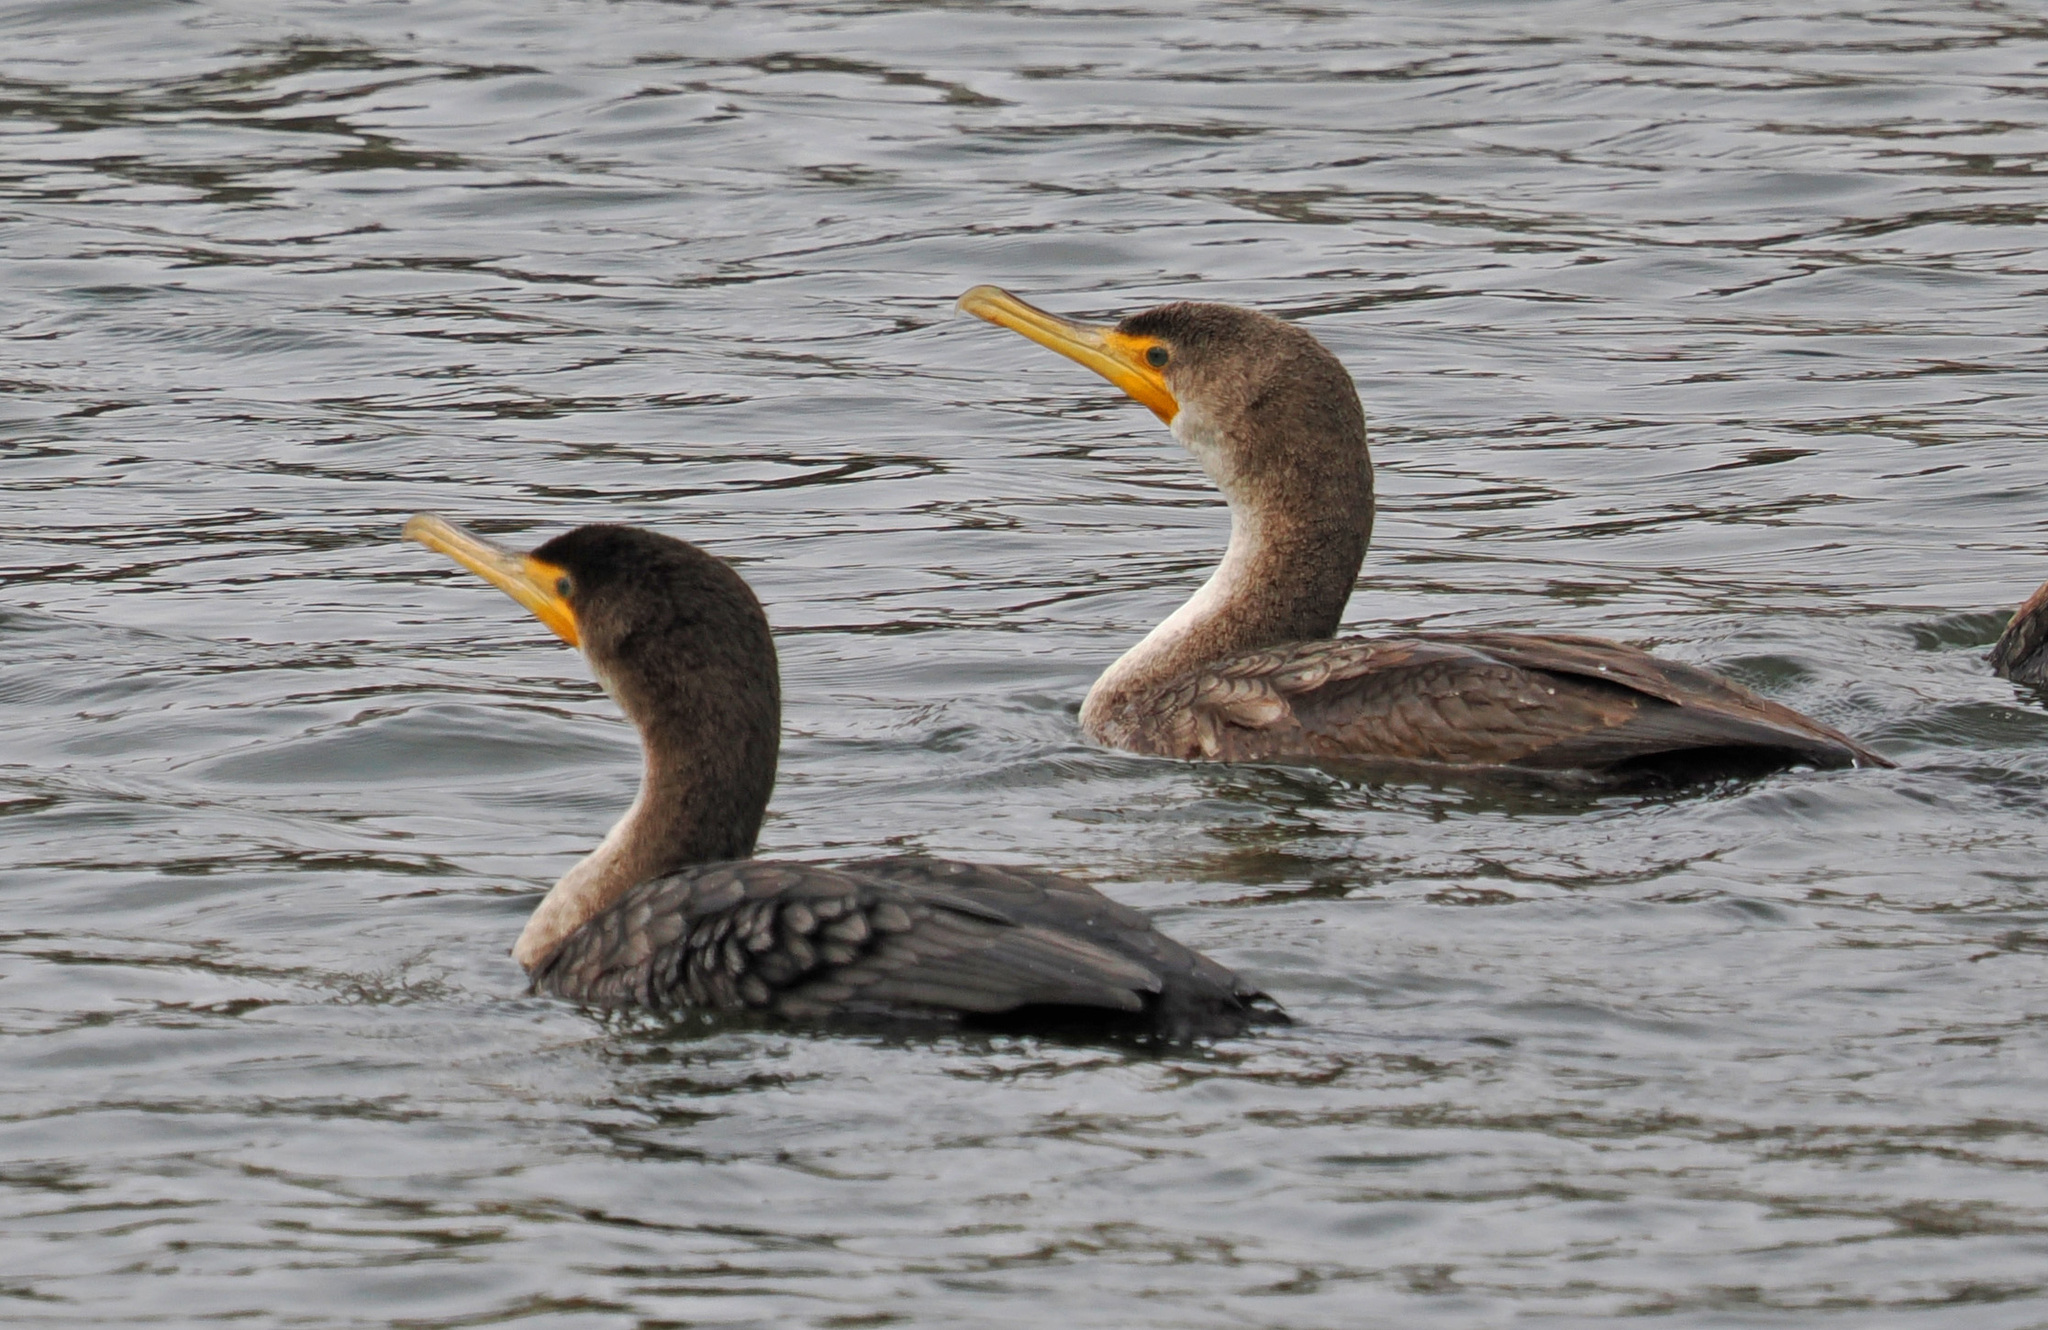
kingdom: Animalia
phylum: Chordata
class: Aves
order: Suliformes
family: Phalacrocoracidae
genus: Phalacrocorax
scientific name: Phalacrocorax auritus
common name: Double-crested cormorant
